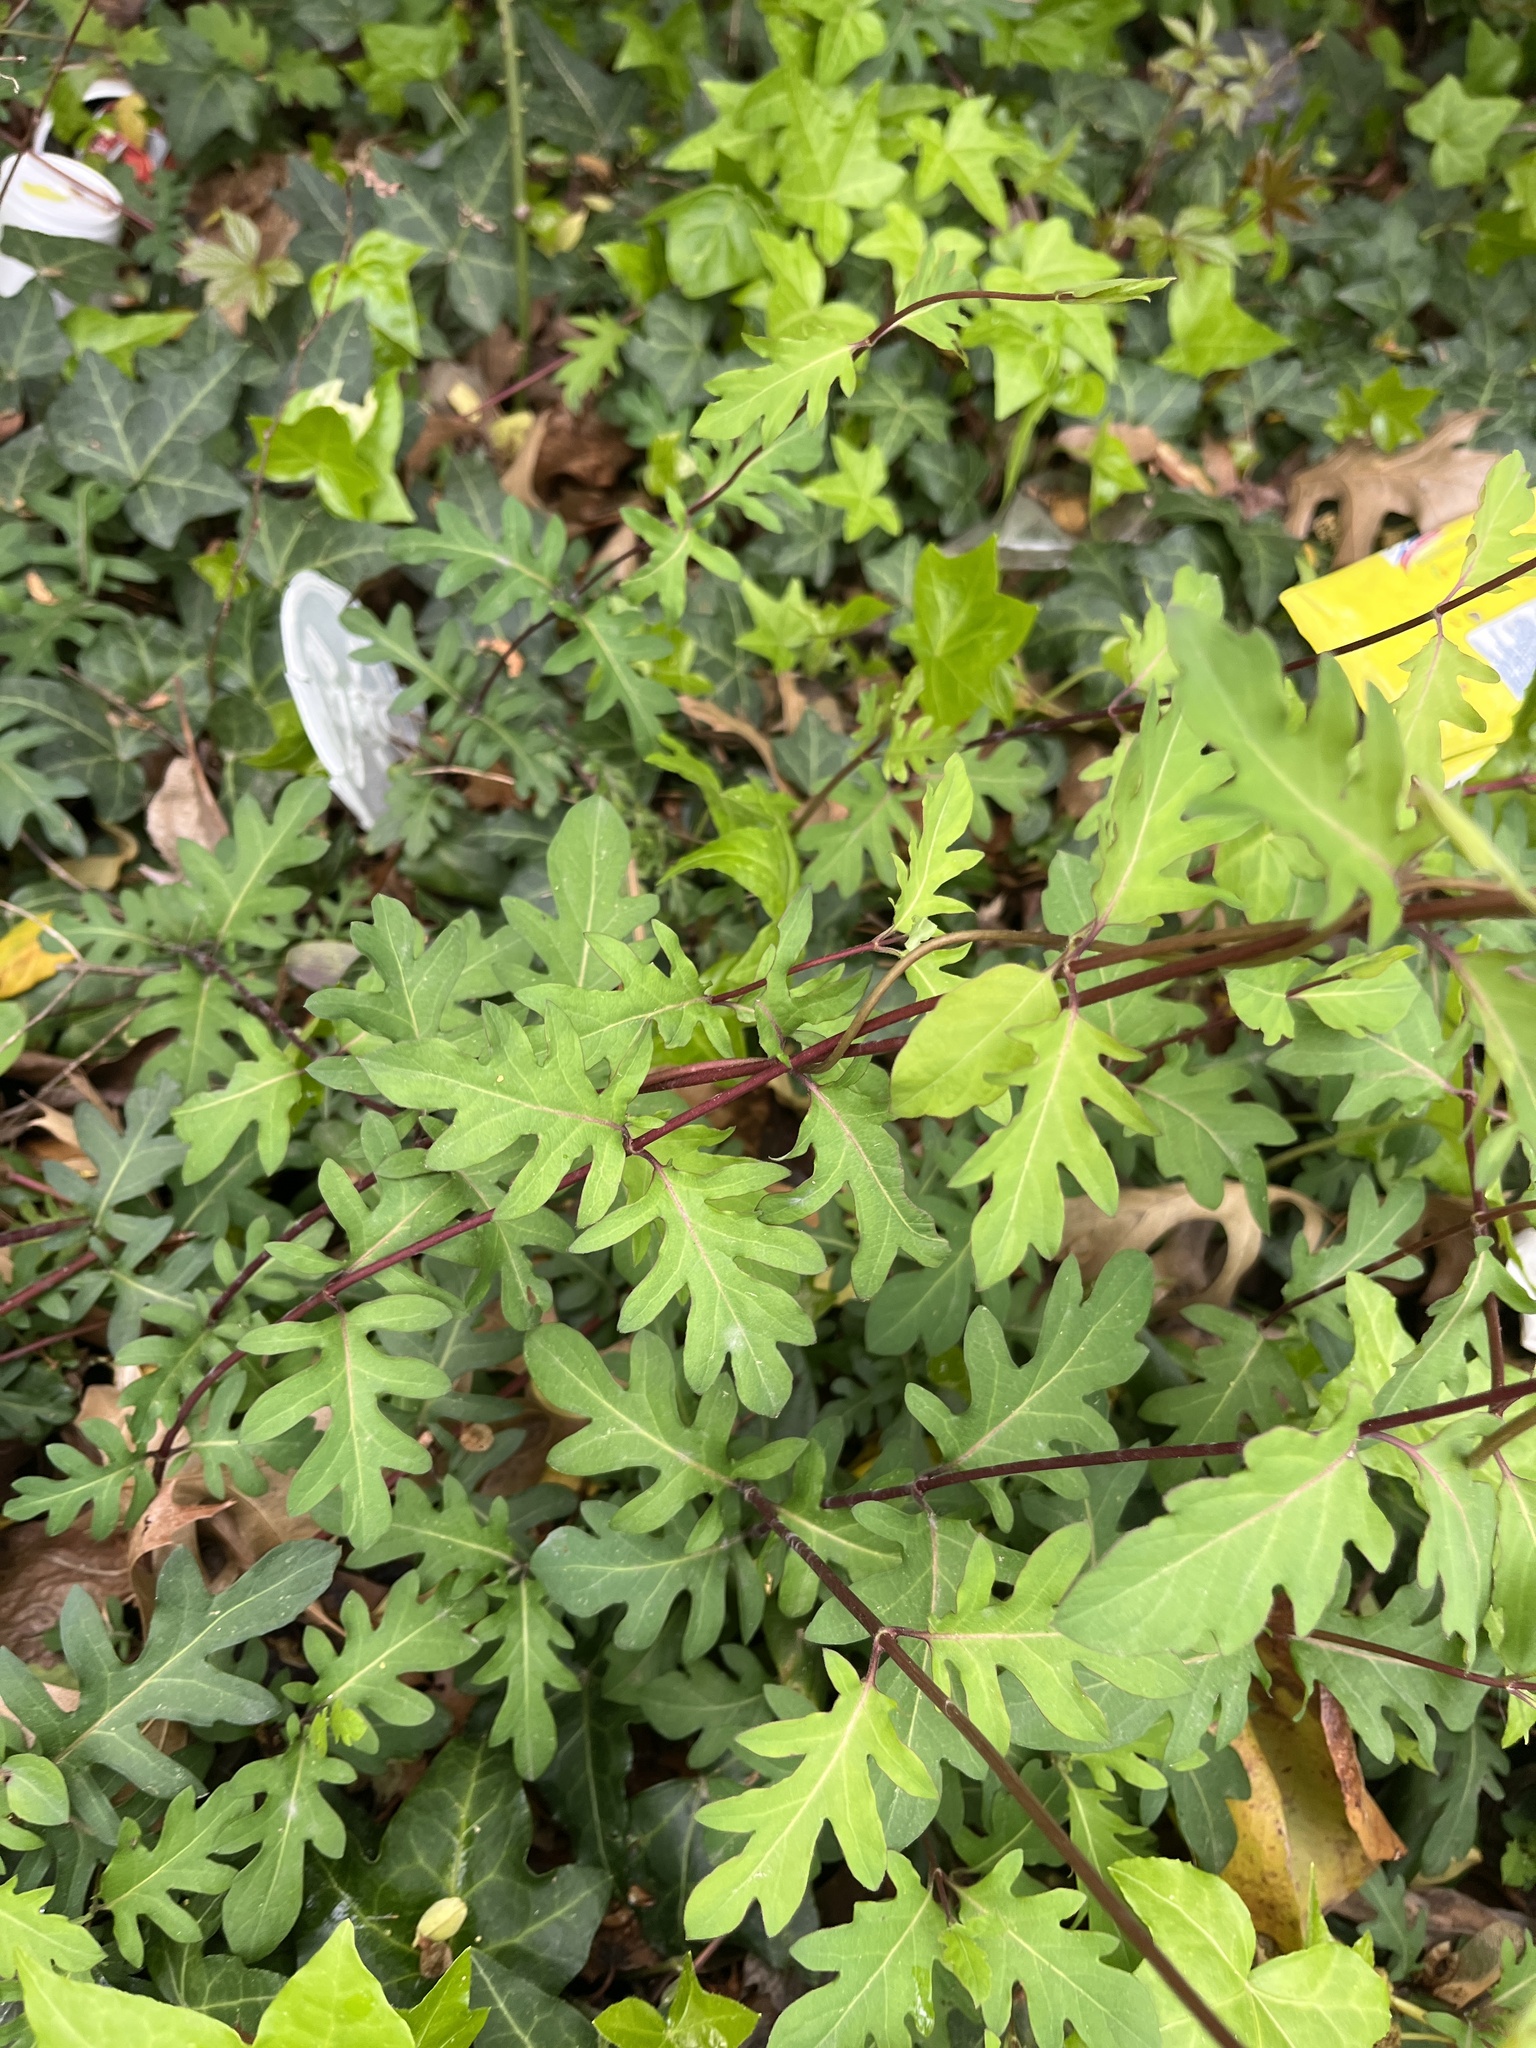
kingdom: Plantae
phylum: Tracheophyta
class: Magnoliopsida
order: Dipsacales
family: Caprifoliaceae
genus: Lonicera
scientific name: Lonicera japonica
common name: Japanese honeysuckle
